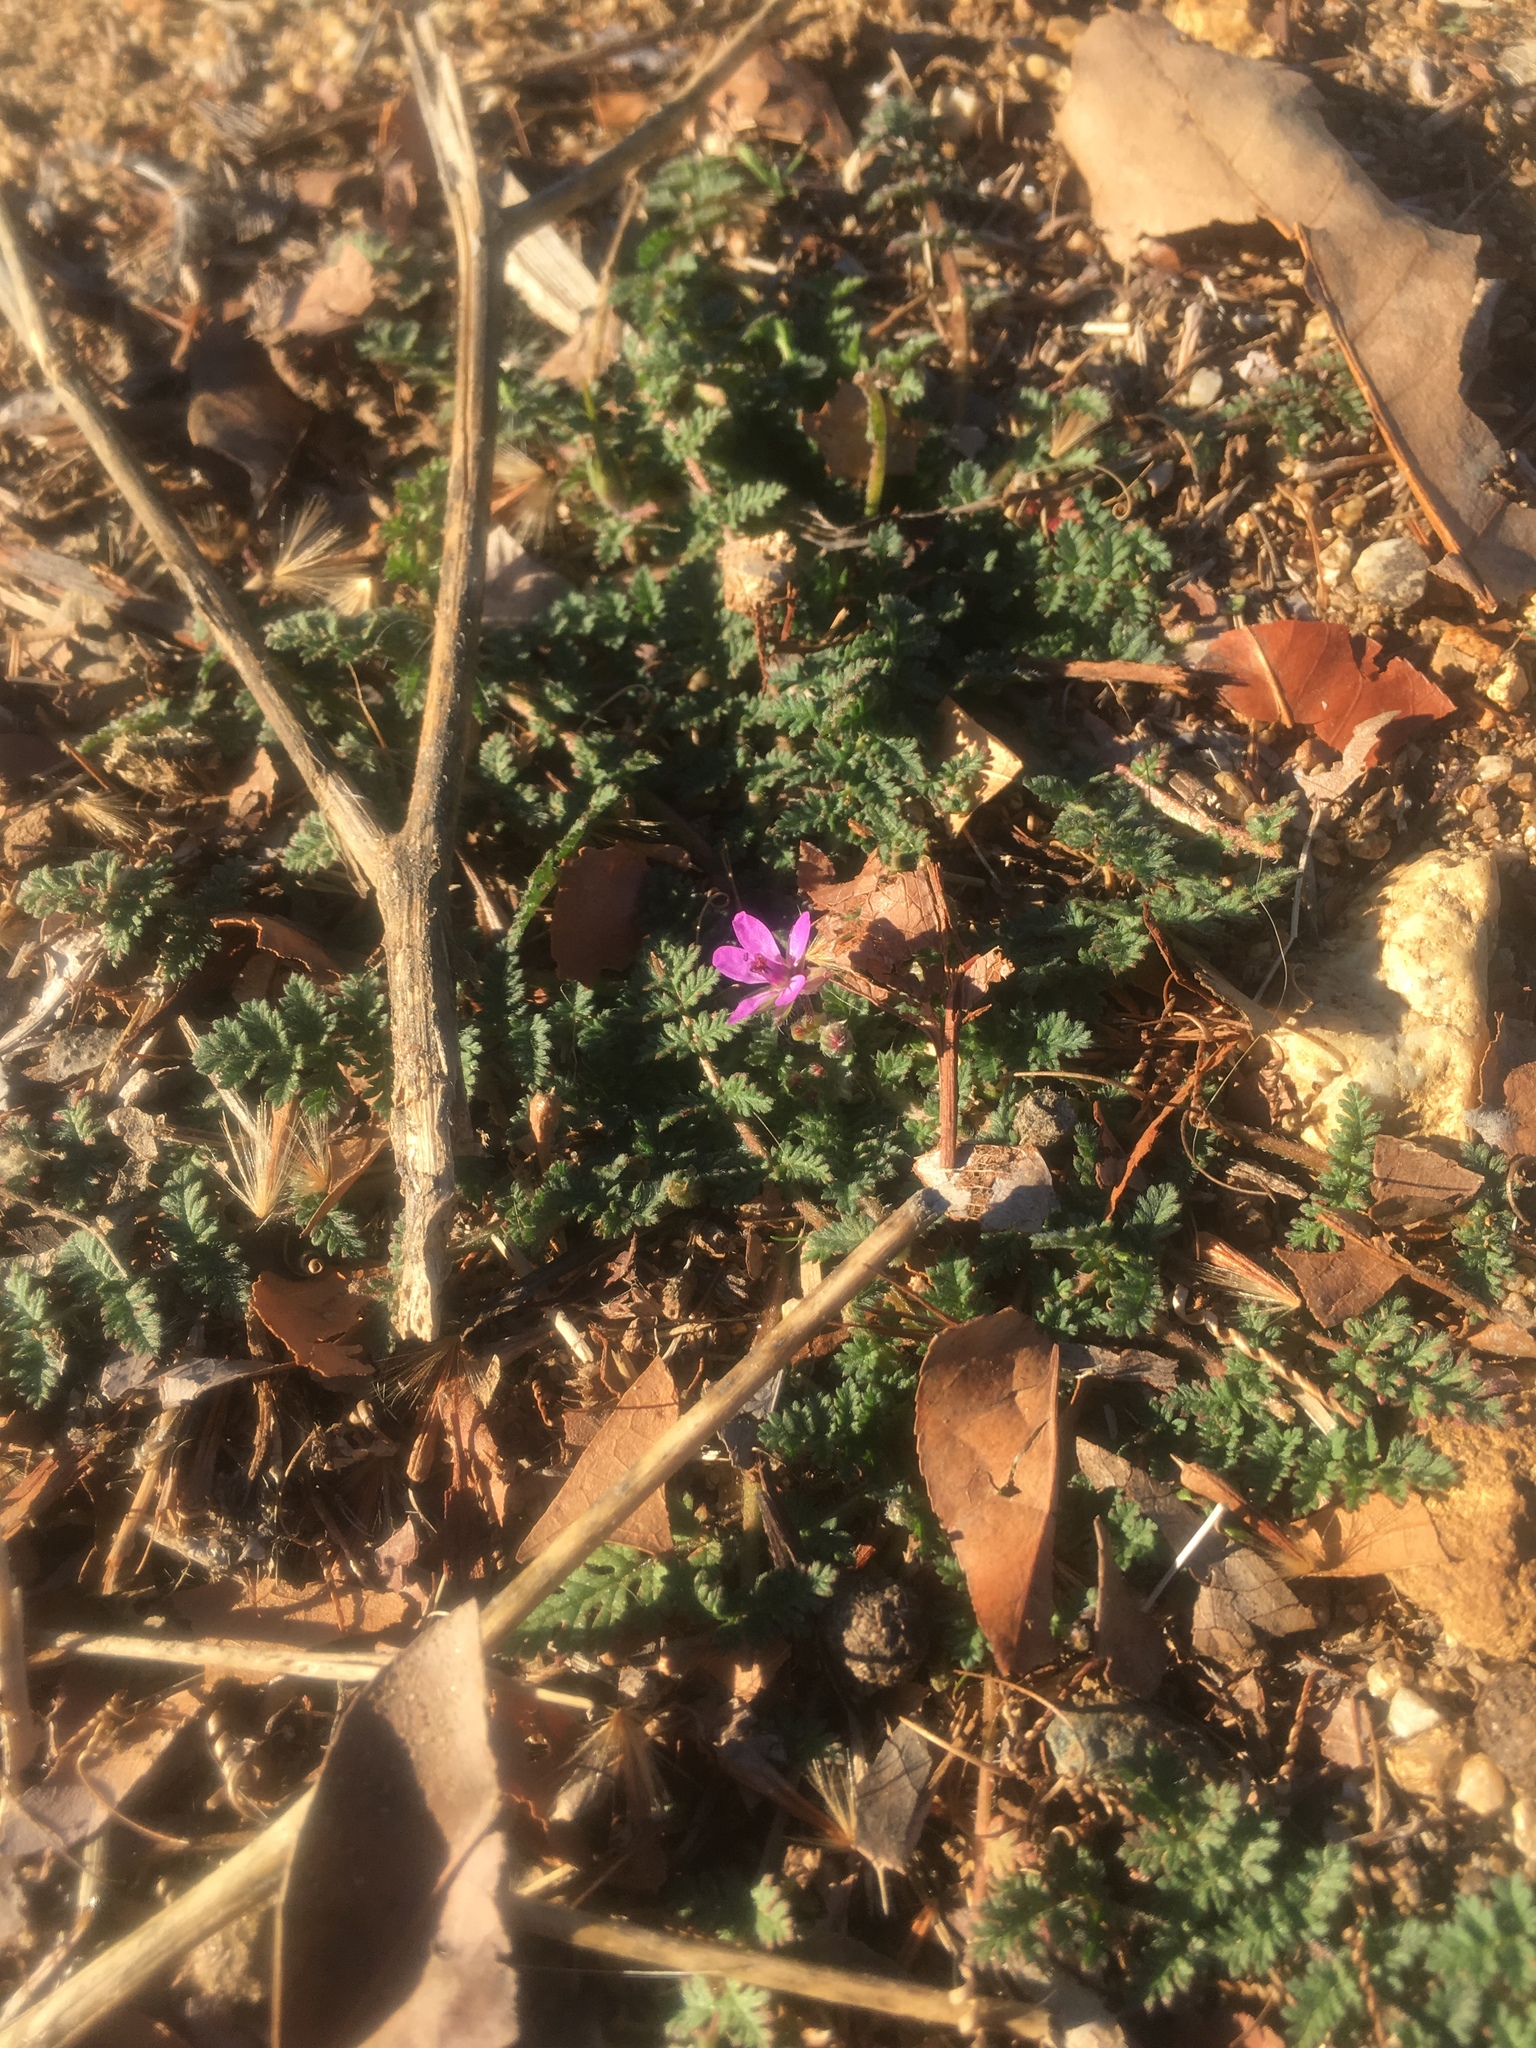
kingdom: Plantae
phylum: Tracheophyta
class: Magnoliopsida
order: Geraniales
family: Geraniaceae
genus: Erodium
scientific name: Erodium cicutarium
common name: Common stork's-bill
